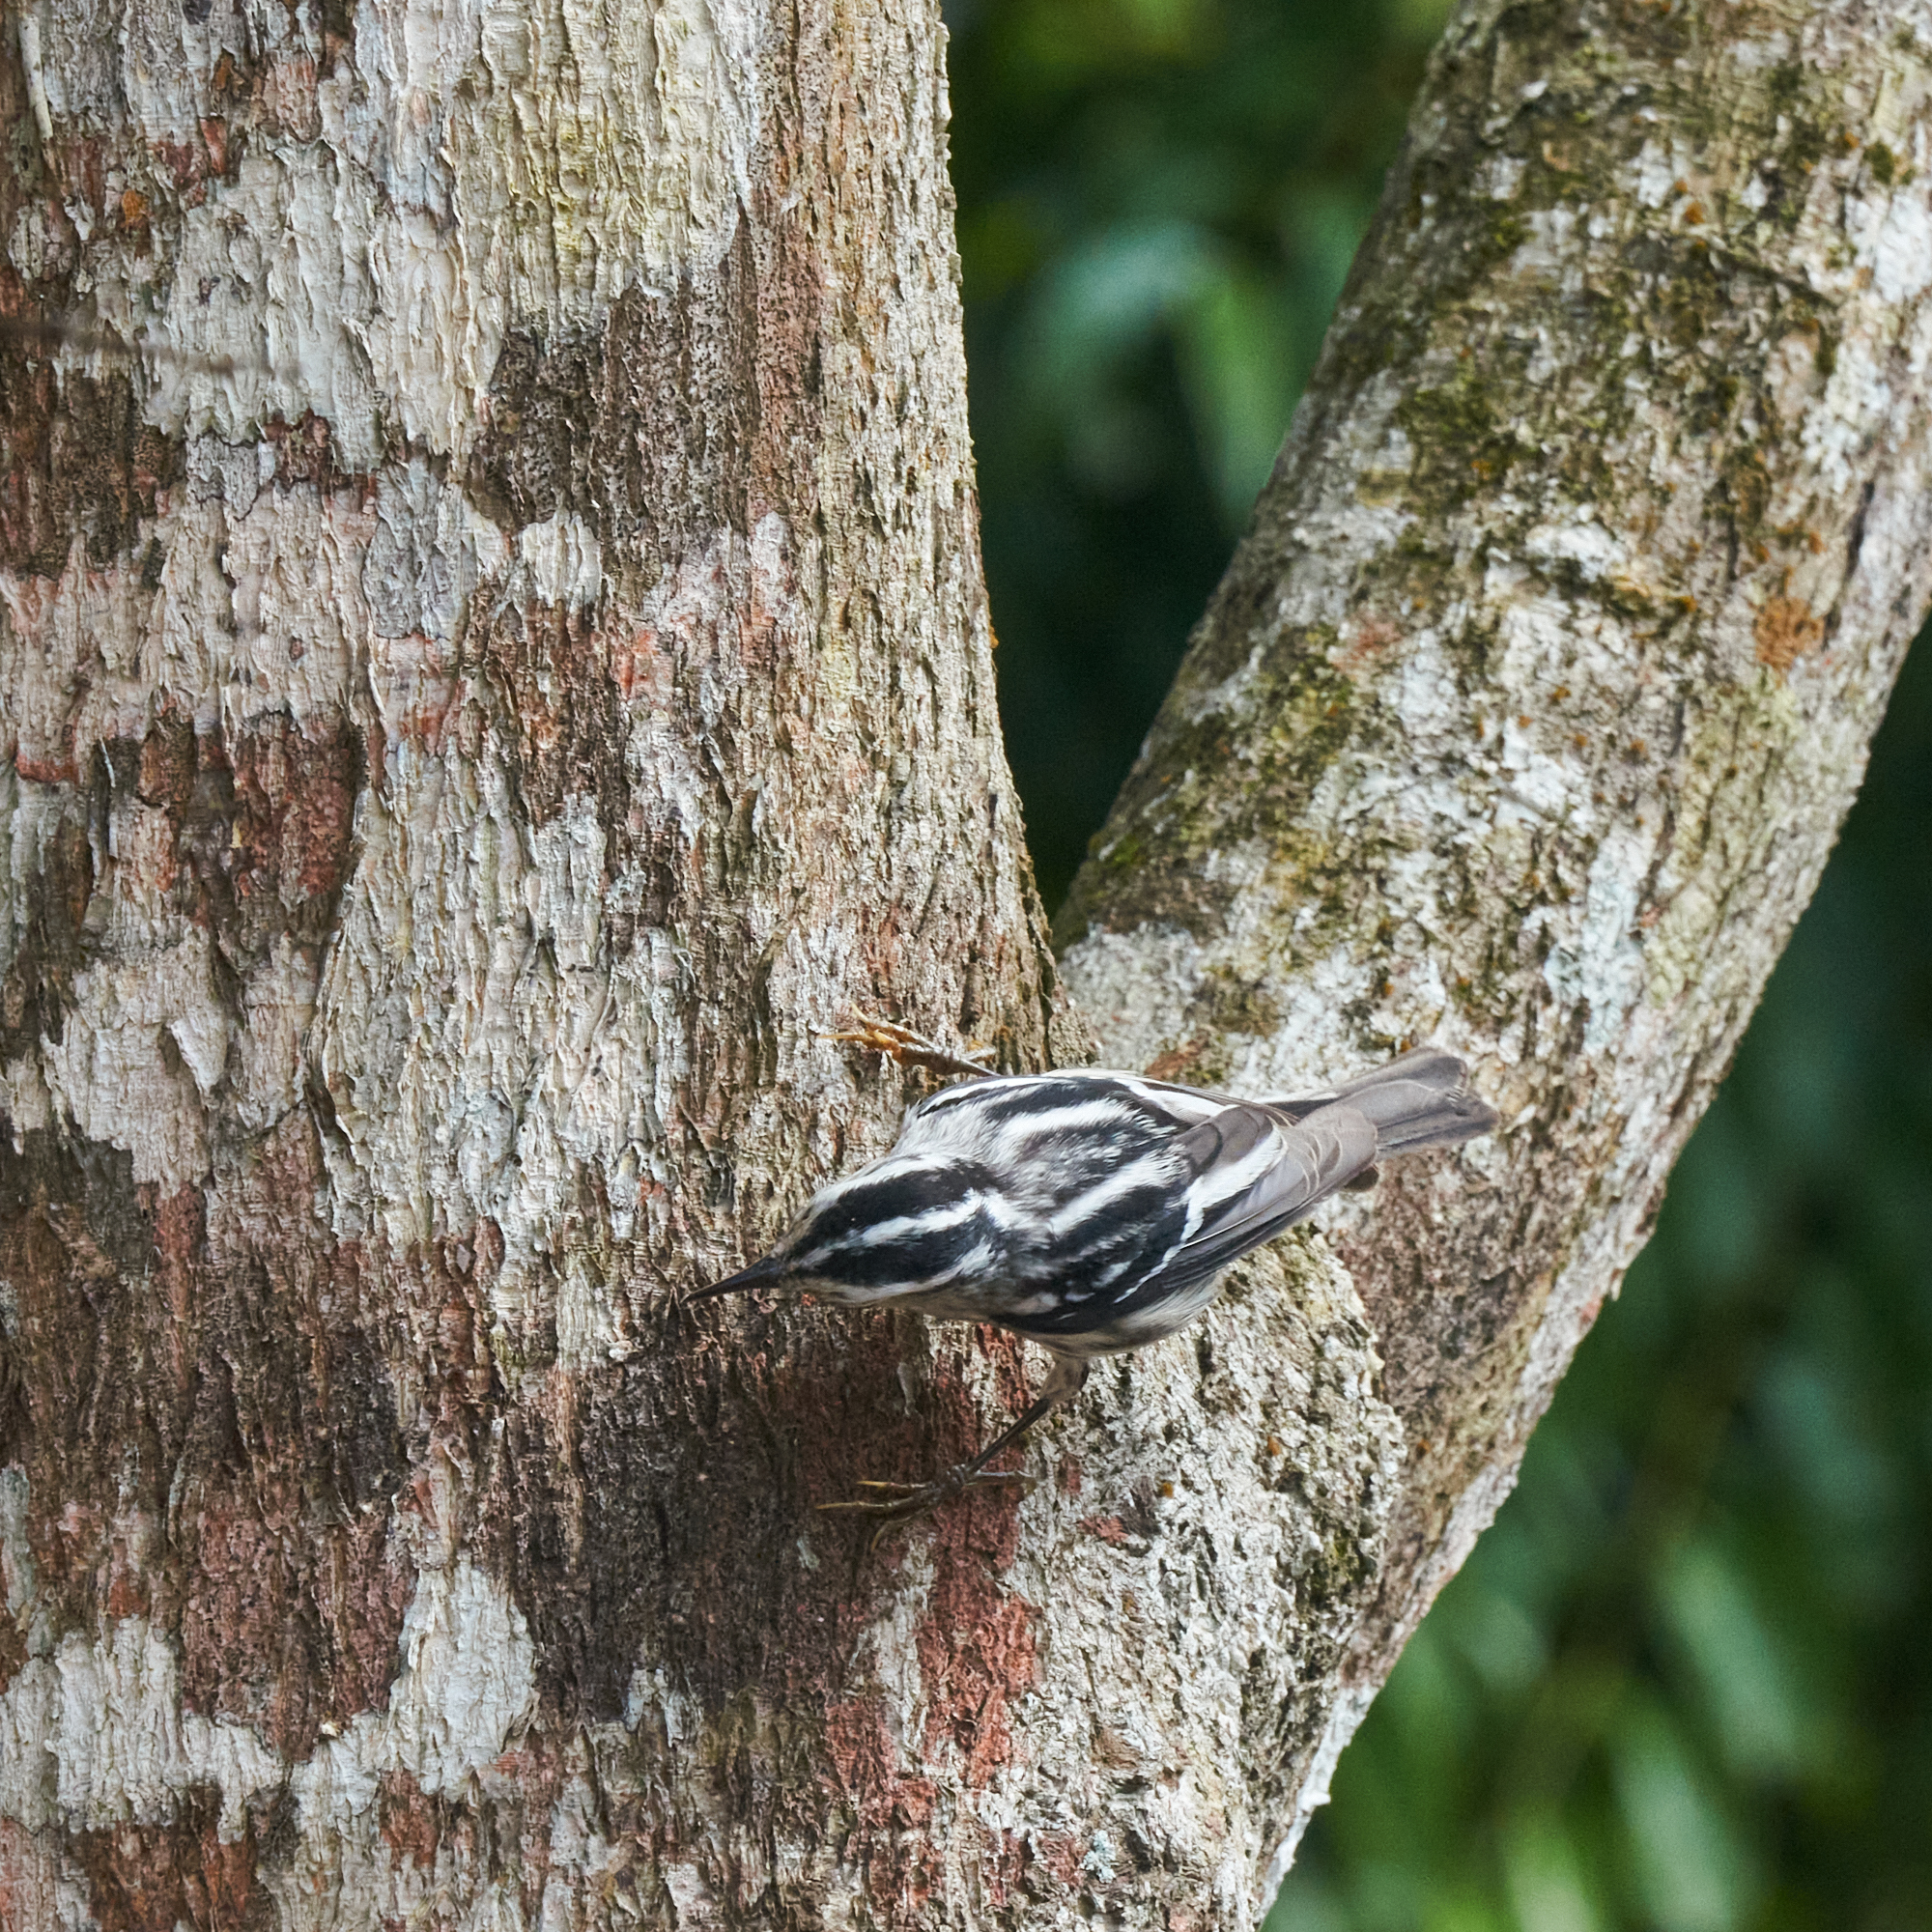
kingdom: Animalia
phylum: Chordata
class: Aves
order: Passeriformes
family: Parulidae
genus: Mniotilta
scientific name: Mniotilta varia
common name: Black-and-white warbler
